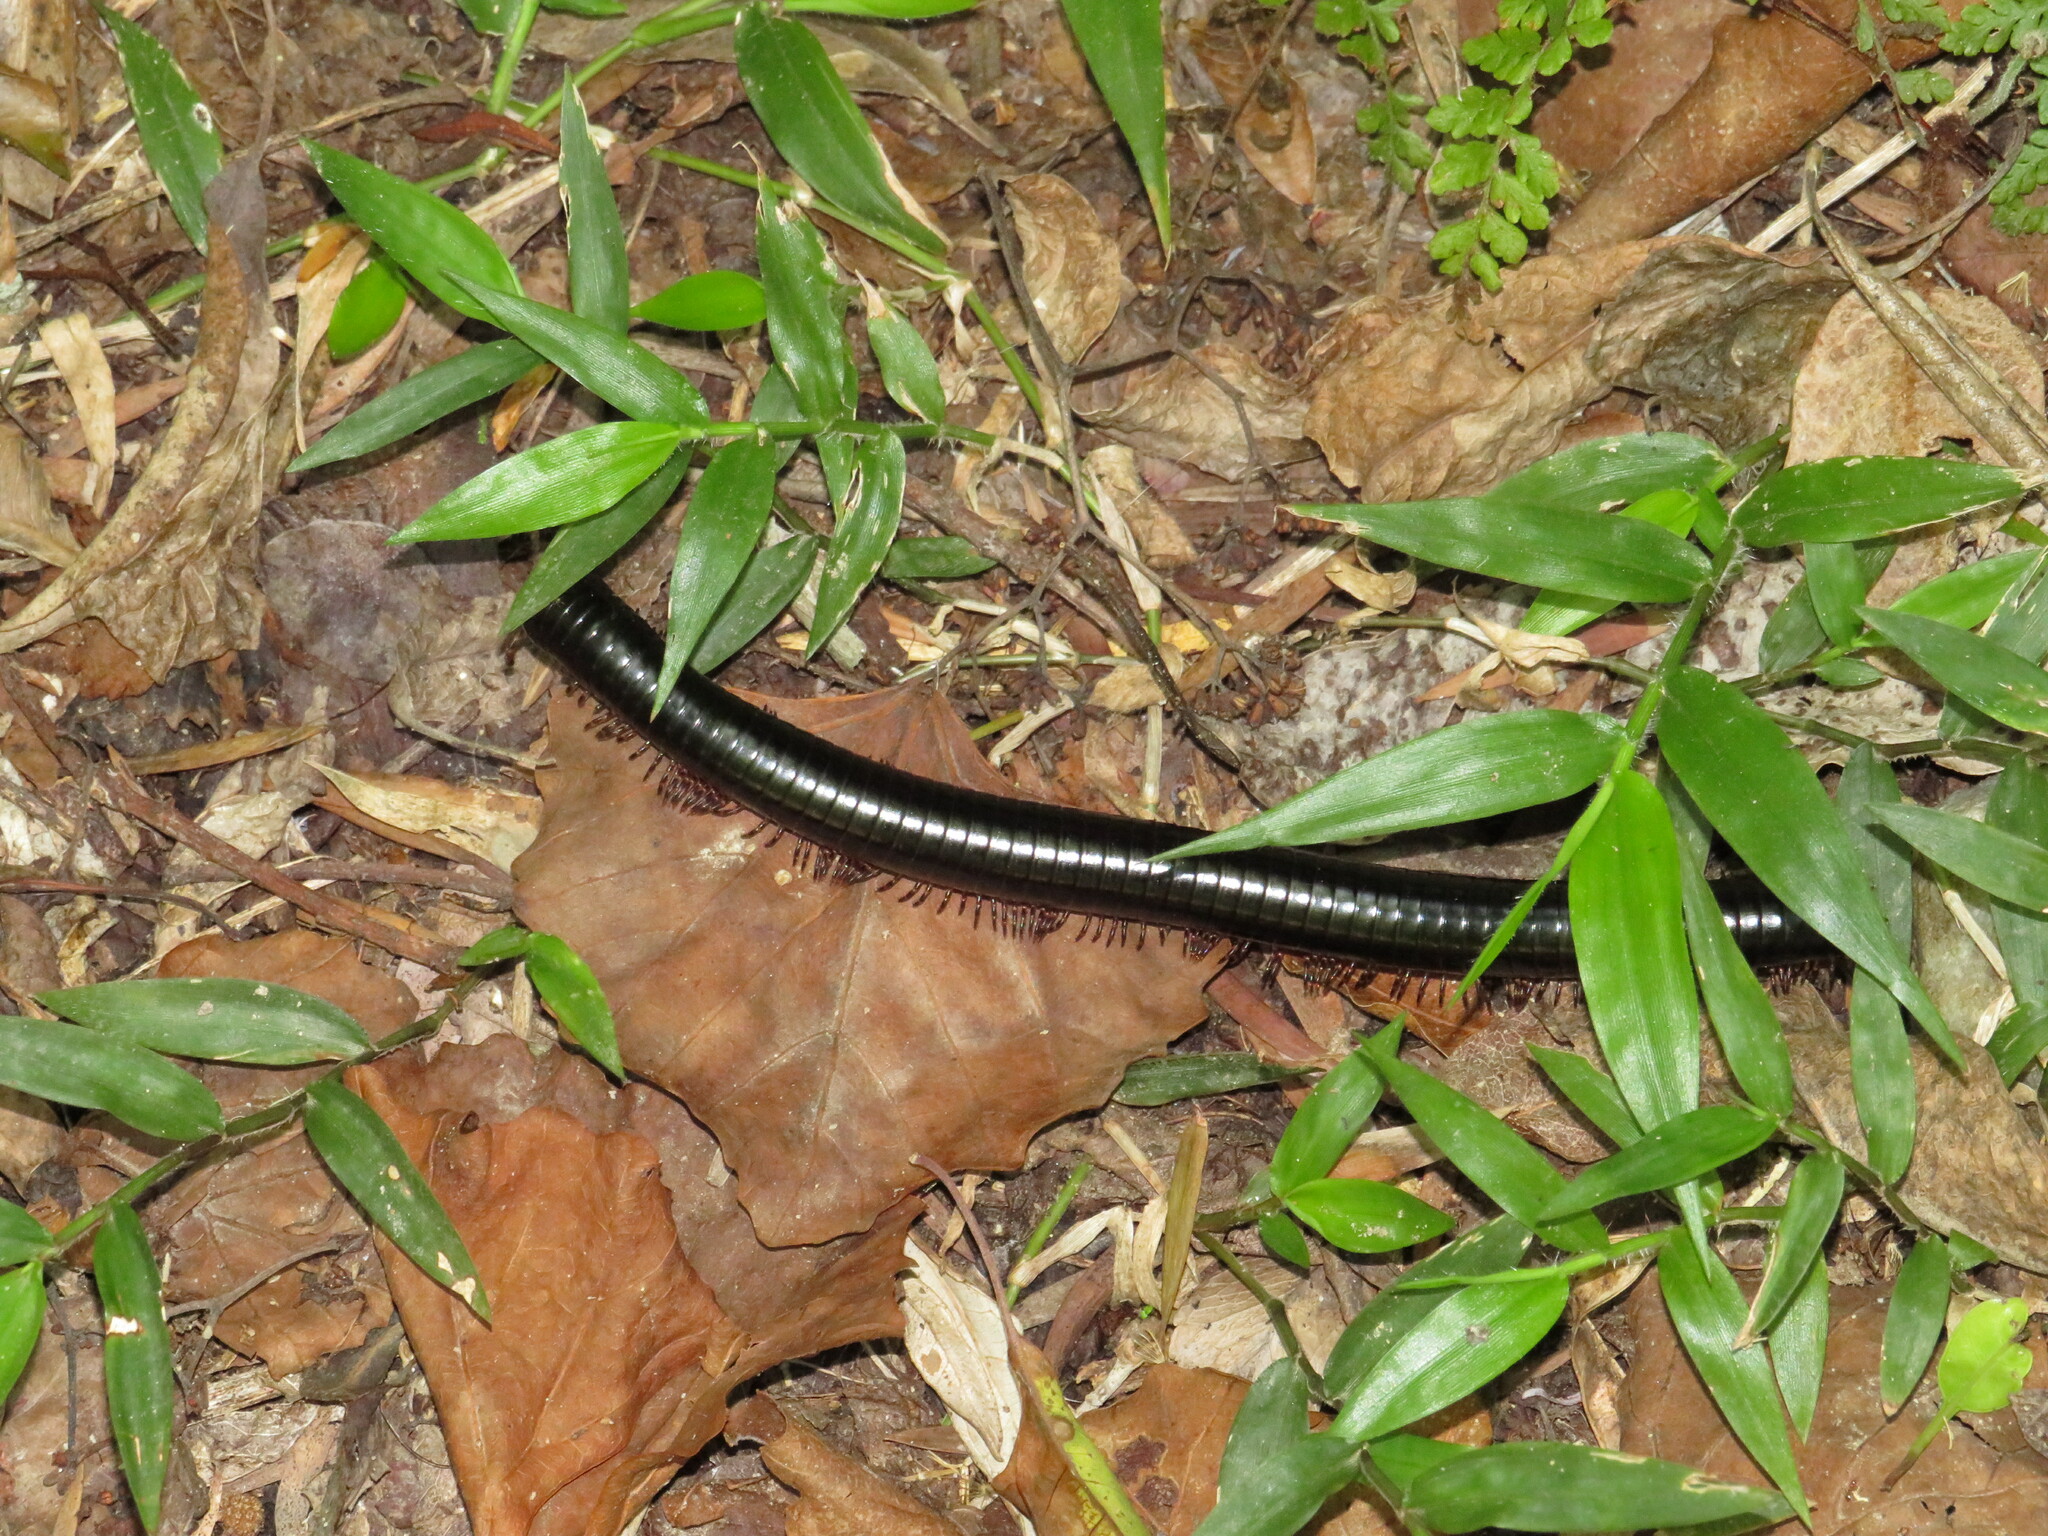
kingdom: Plantae
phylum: Tracheophyta
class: Liliopsida
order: Poales
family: Poaceae
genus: Oplismenus
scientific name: Oplismenus hirtellus
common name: Basketgrass
